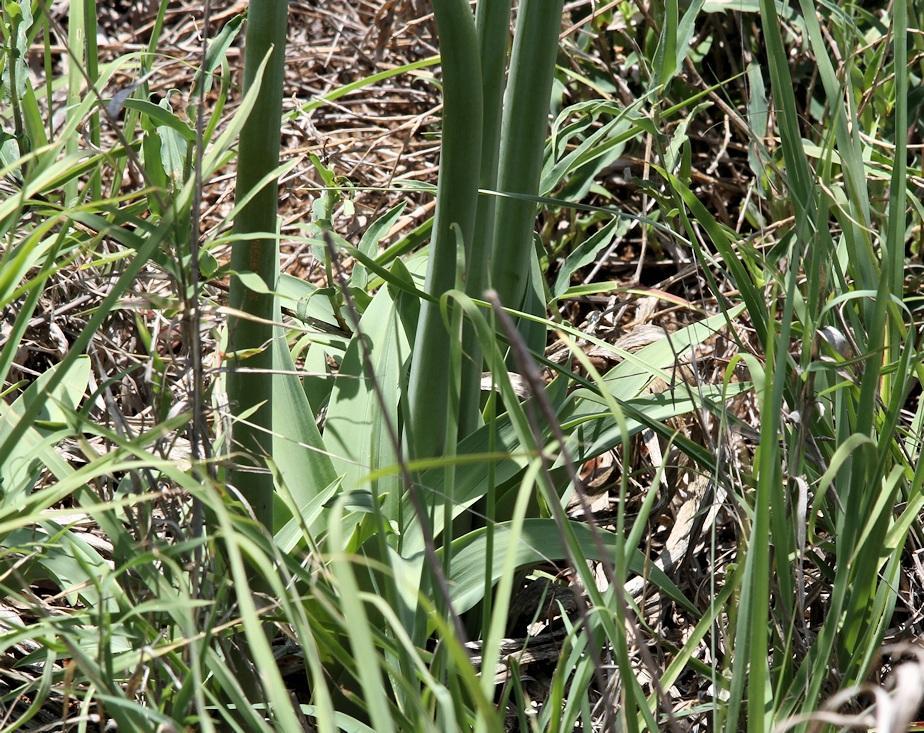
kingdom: Plantae
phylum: Tracheophyta
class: Liliopsida
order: Asparagales
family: Asparagaceae
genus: Drimia
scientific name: Drimia altissima
